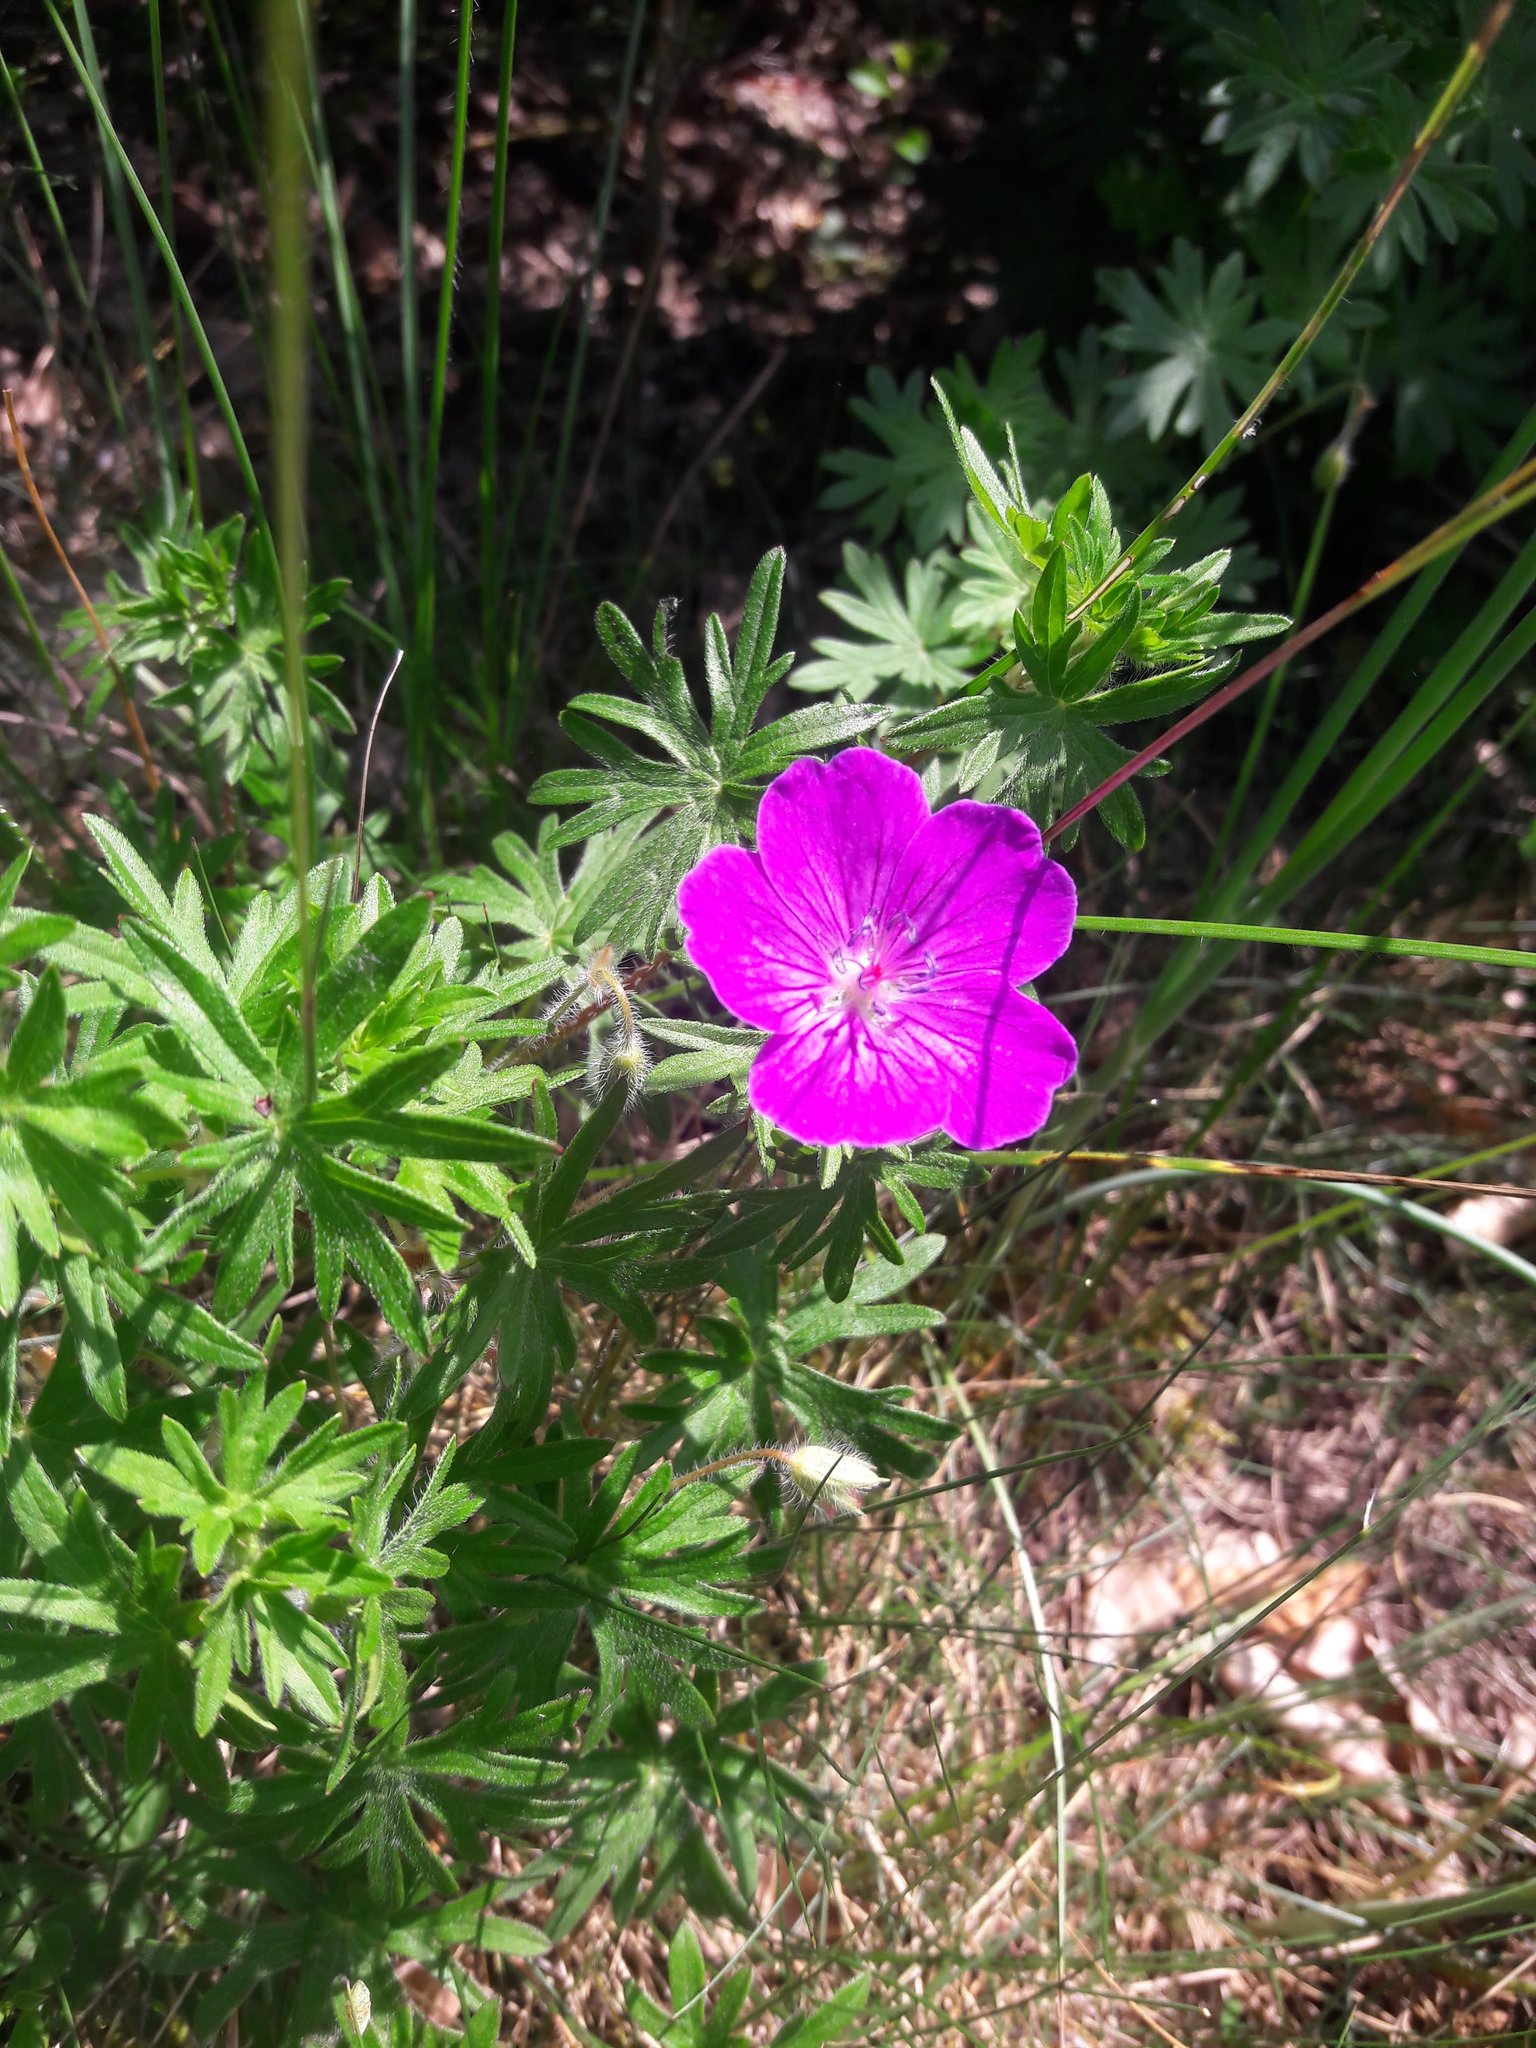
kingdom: Plantae
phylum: Tracheophyta
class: Magnoliopsida
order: Geraniales
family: Geraniaceae
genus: Geranium
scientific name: Geranium sanguineum
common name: Bloody crane's-bill
